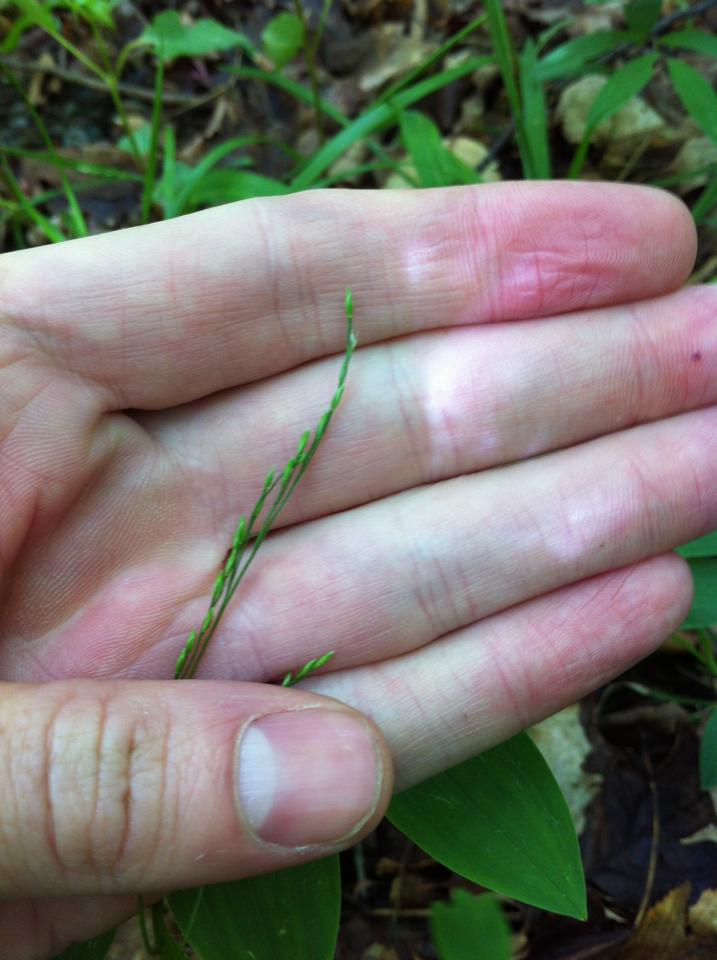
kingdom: Plantae
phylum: Tracheophyta
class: Liliopsida
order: Poales
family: Poaceae
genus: Festuca
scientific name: Festuca subverticillata
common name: Nodding fescue
